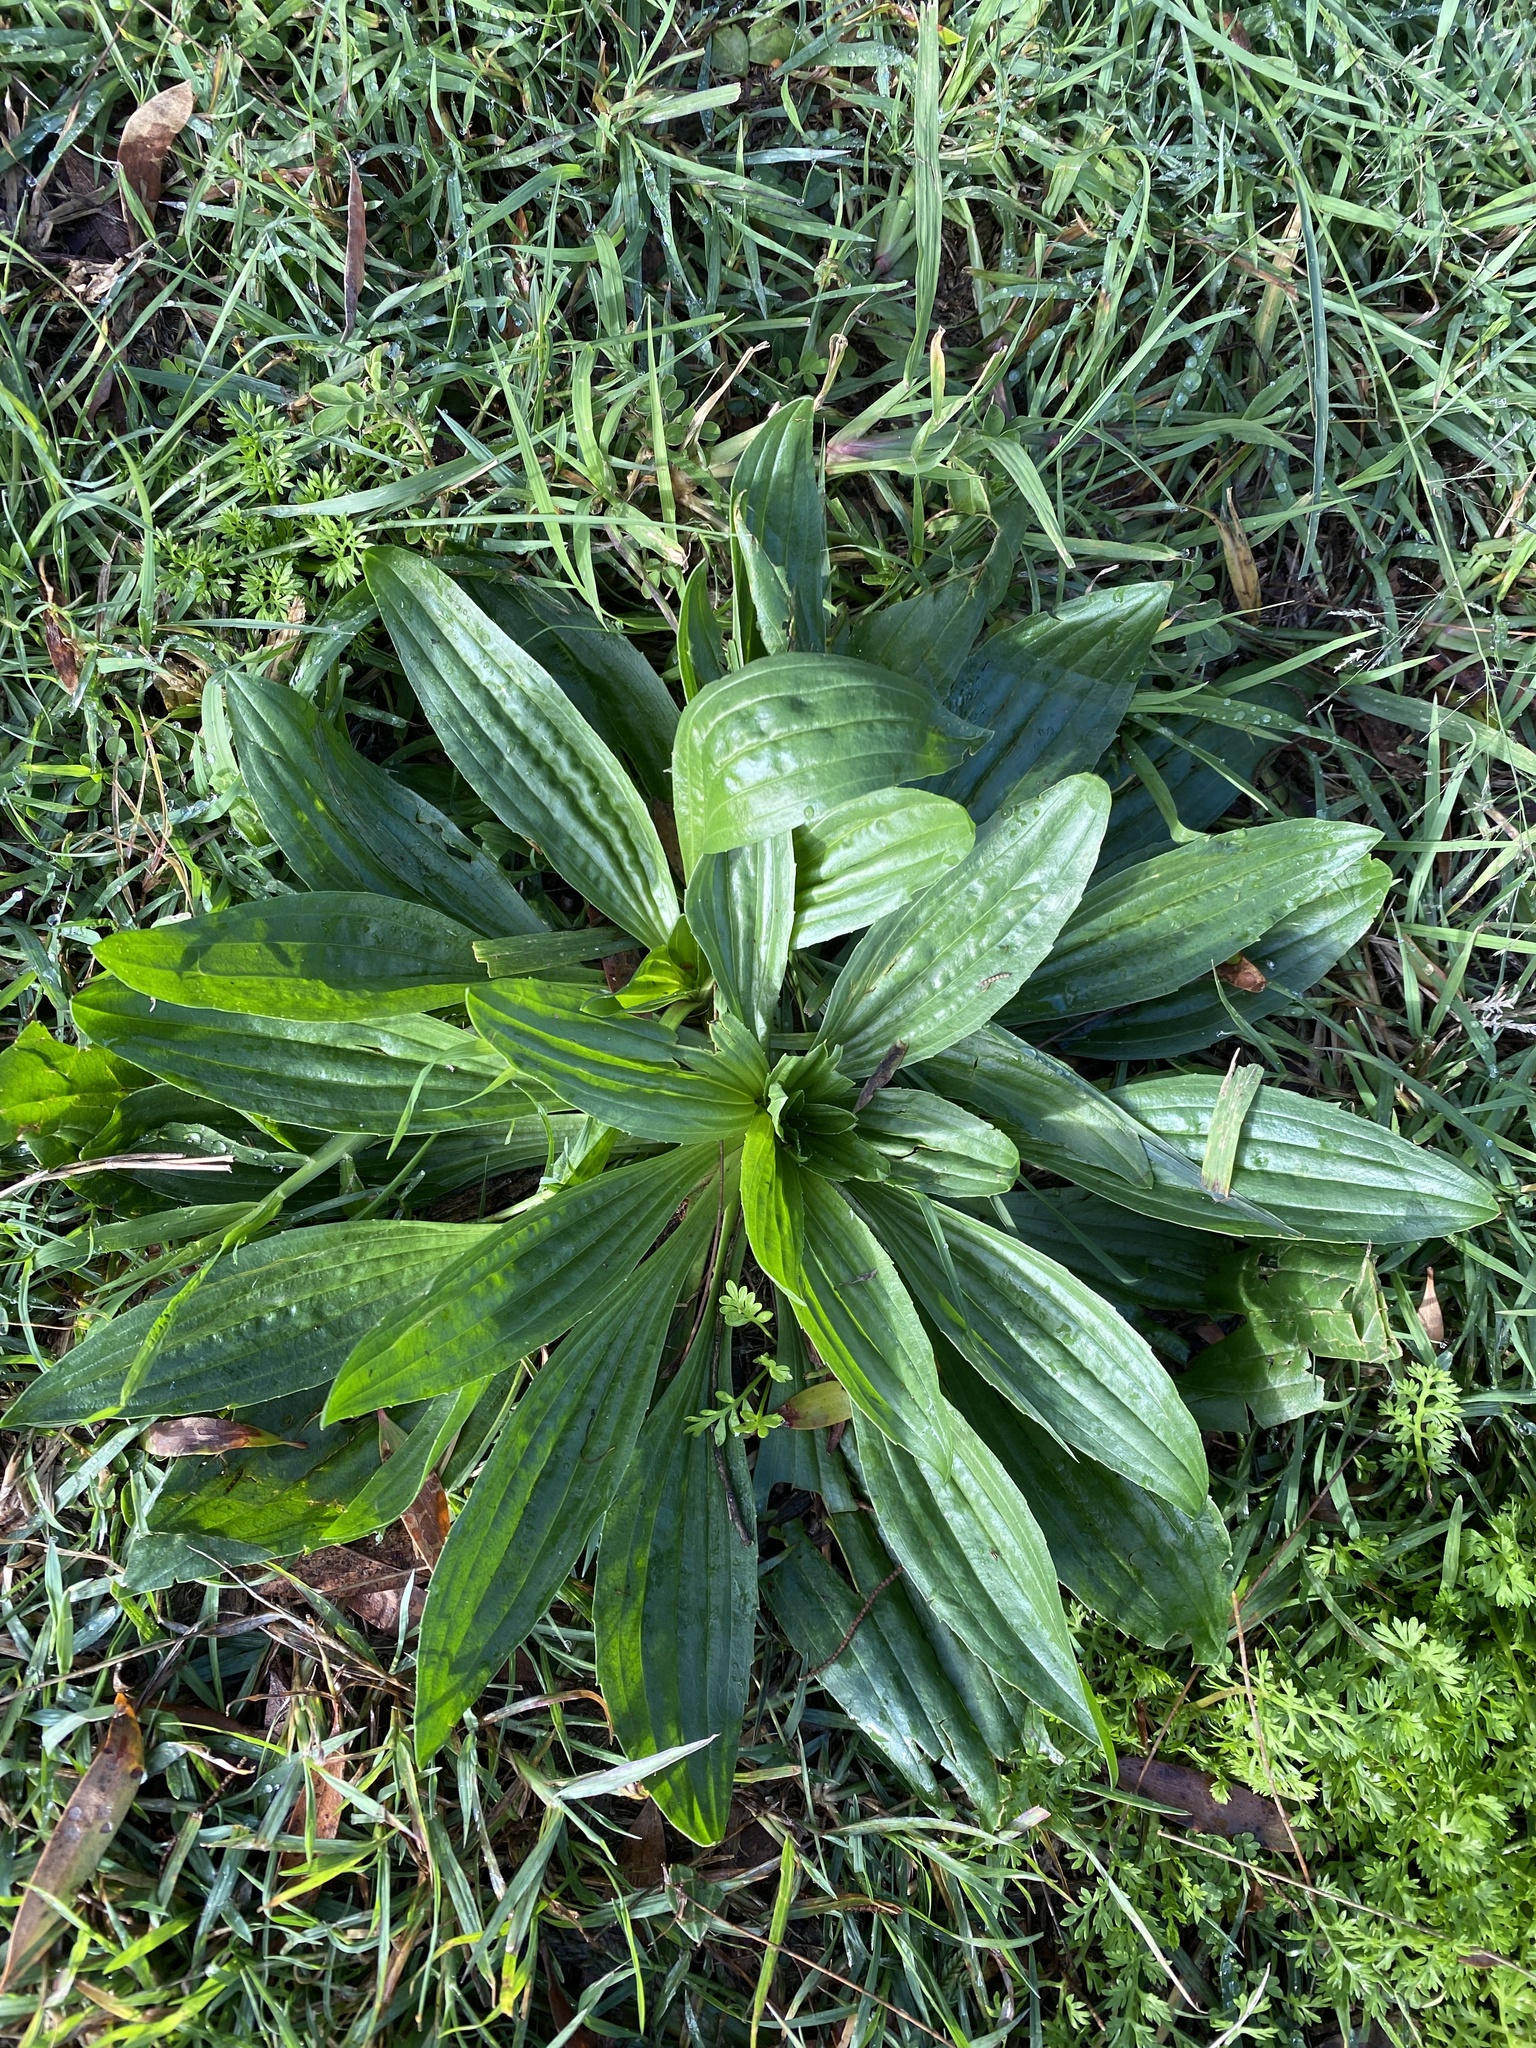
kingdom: Plantae
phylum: Tracheophyta
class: Magnoliopsida
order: Lamiales
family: Plantaginaceae
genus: Plantago
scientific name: Plantago lanceolata
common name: Ribwort plantain
